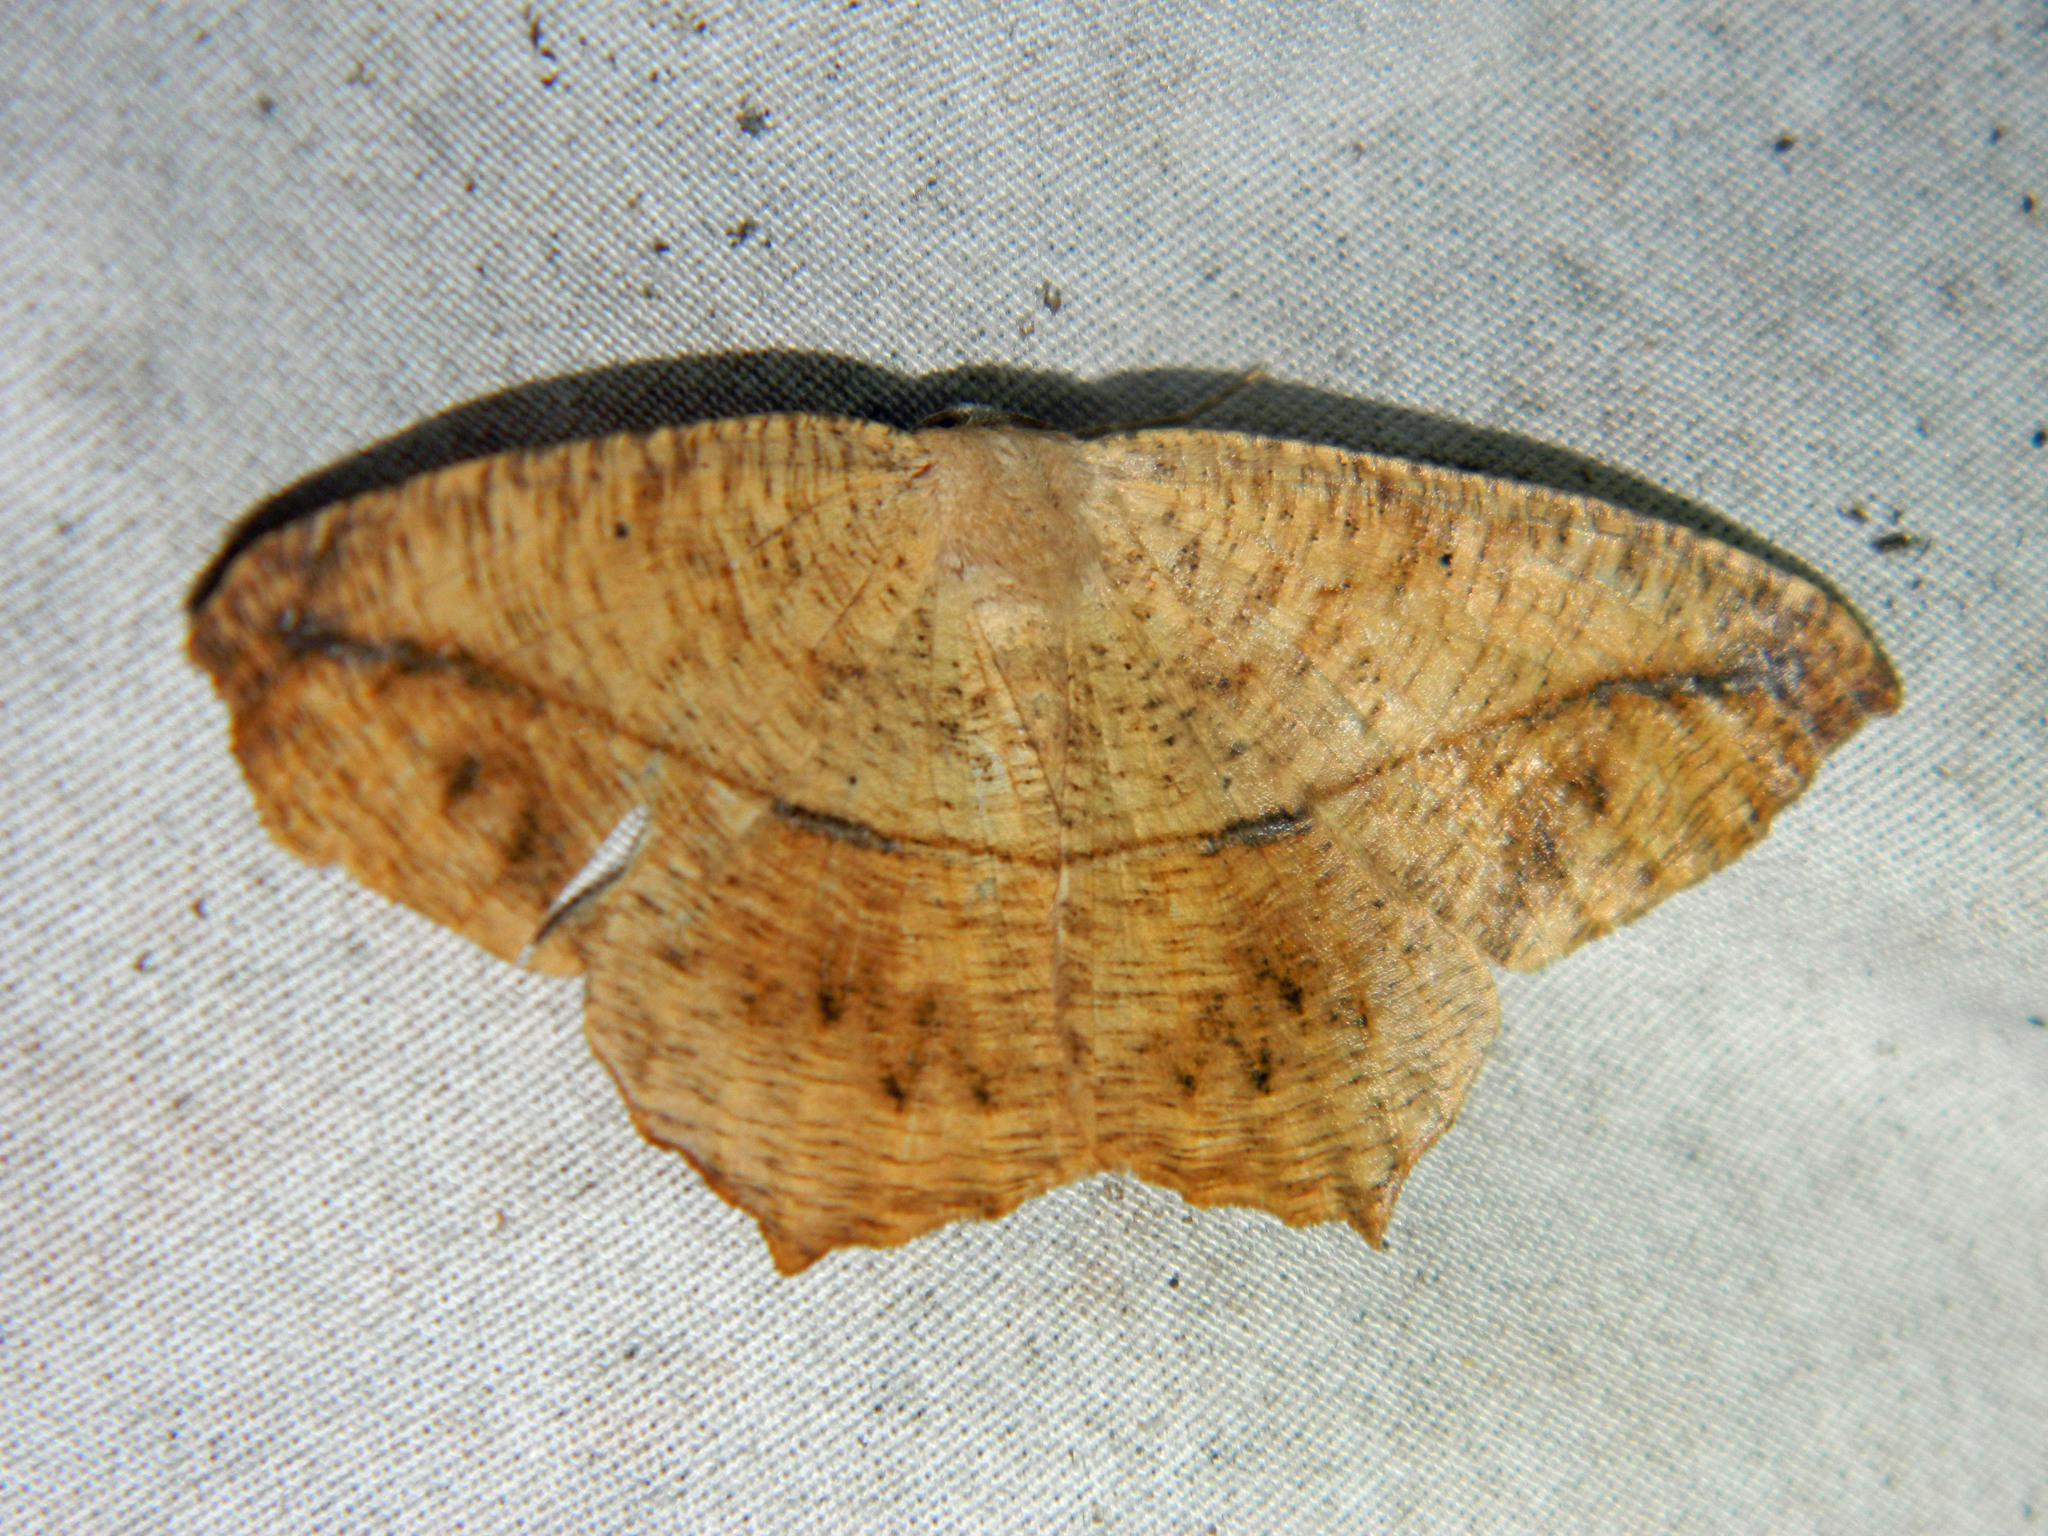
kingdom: Animalia
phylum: Arthropoda
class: Insecta
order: Lepidoptera
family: Geometridae
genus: Prochoerodes
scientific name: Prochoerodes lineola
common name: Large maple spanworm
